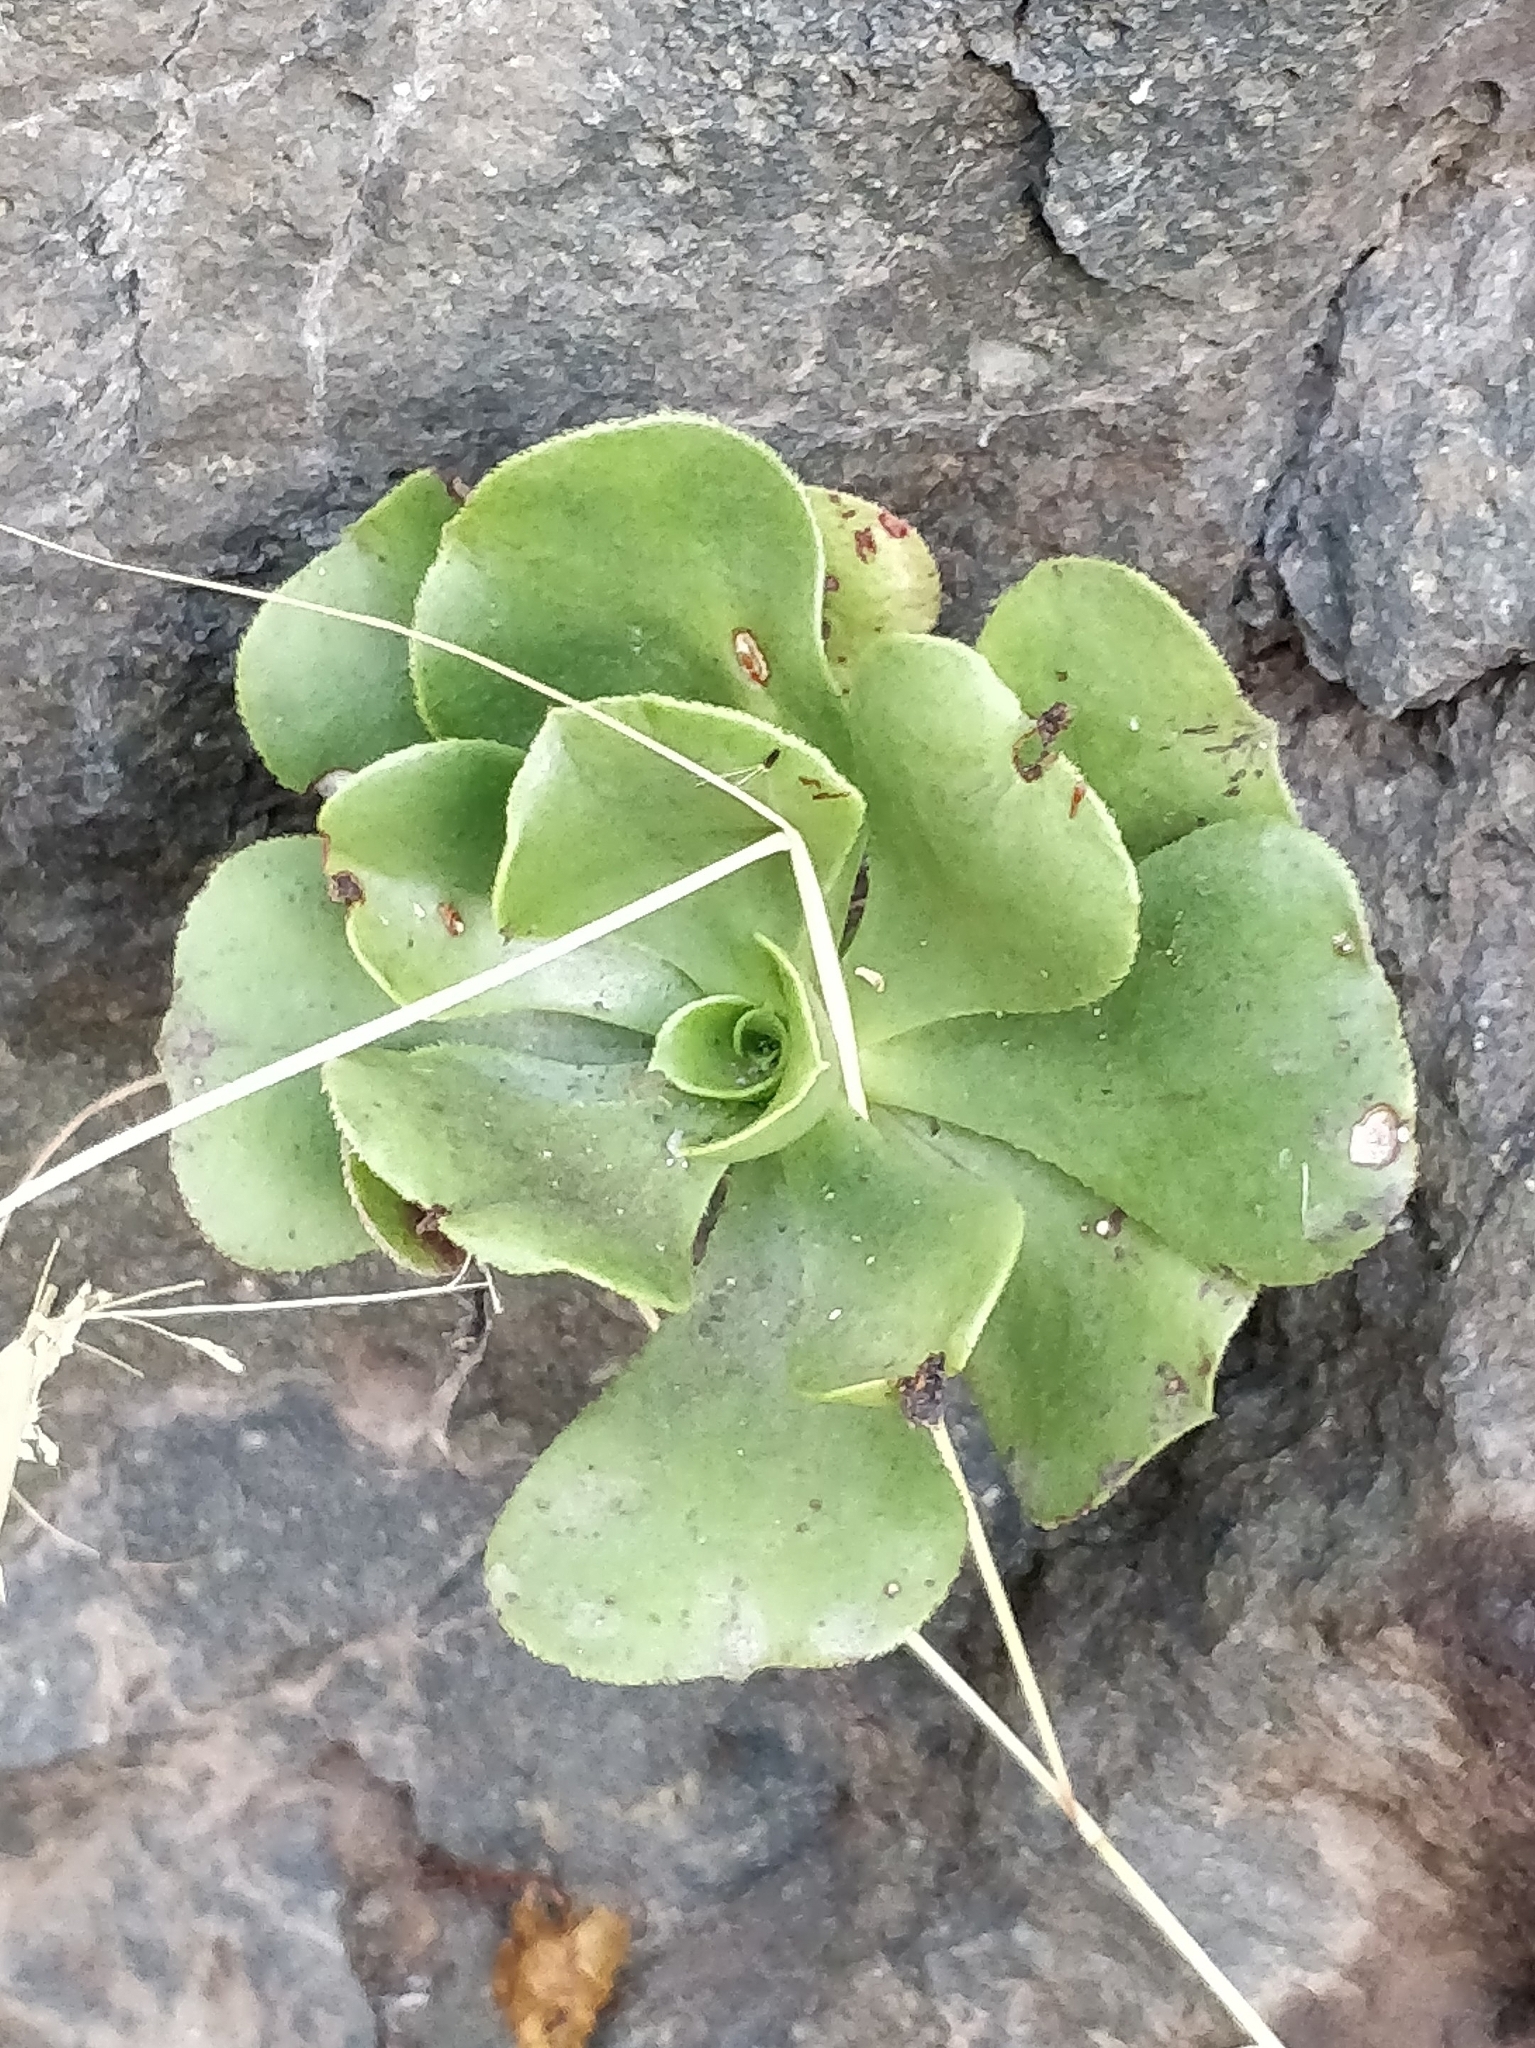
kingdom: Plantae
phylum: Tracheophyta
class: Magnoliopsida
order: Saxifragales
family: Crassulaceae
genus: Aeonium
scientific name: Aeonium glutinosum
